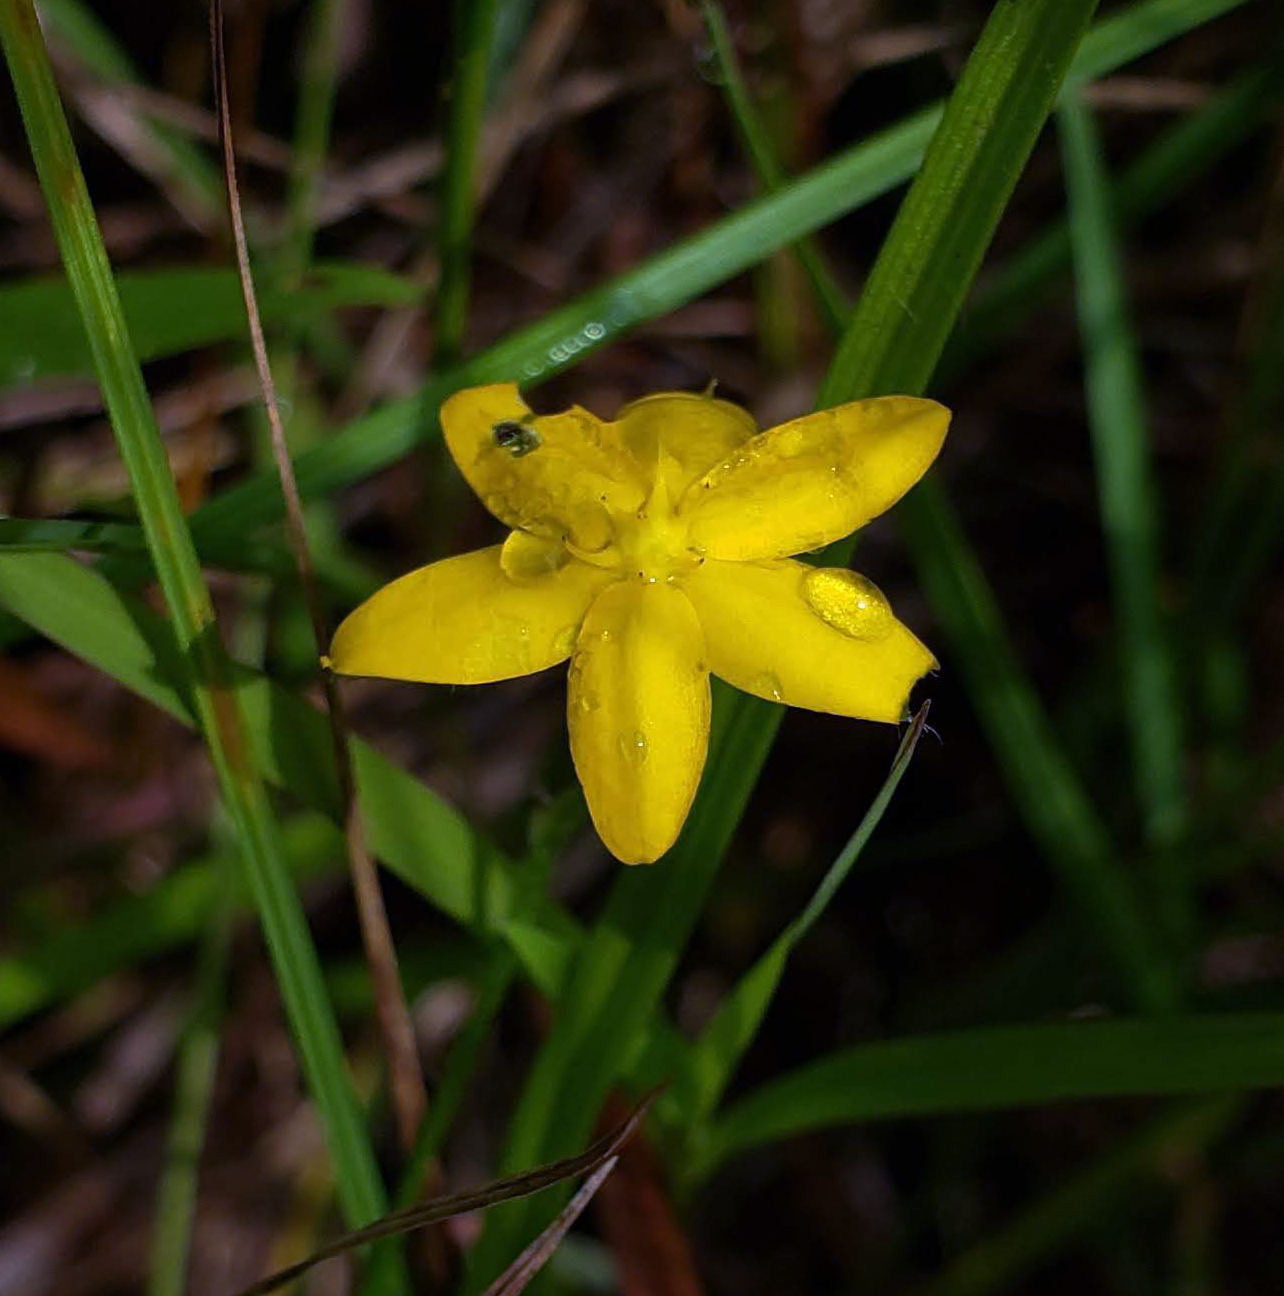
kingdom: Plantae
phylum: Tracheophyta
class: Liliopsida
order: Asparagales
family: Hypoxidaceae
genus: Hypoxis
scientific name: Hypoxis hirsuta
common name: Common goldstar
